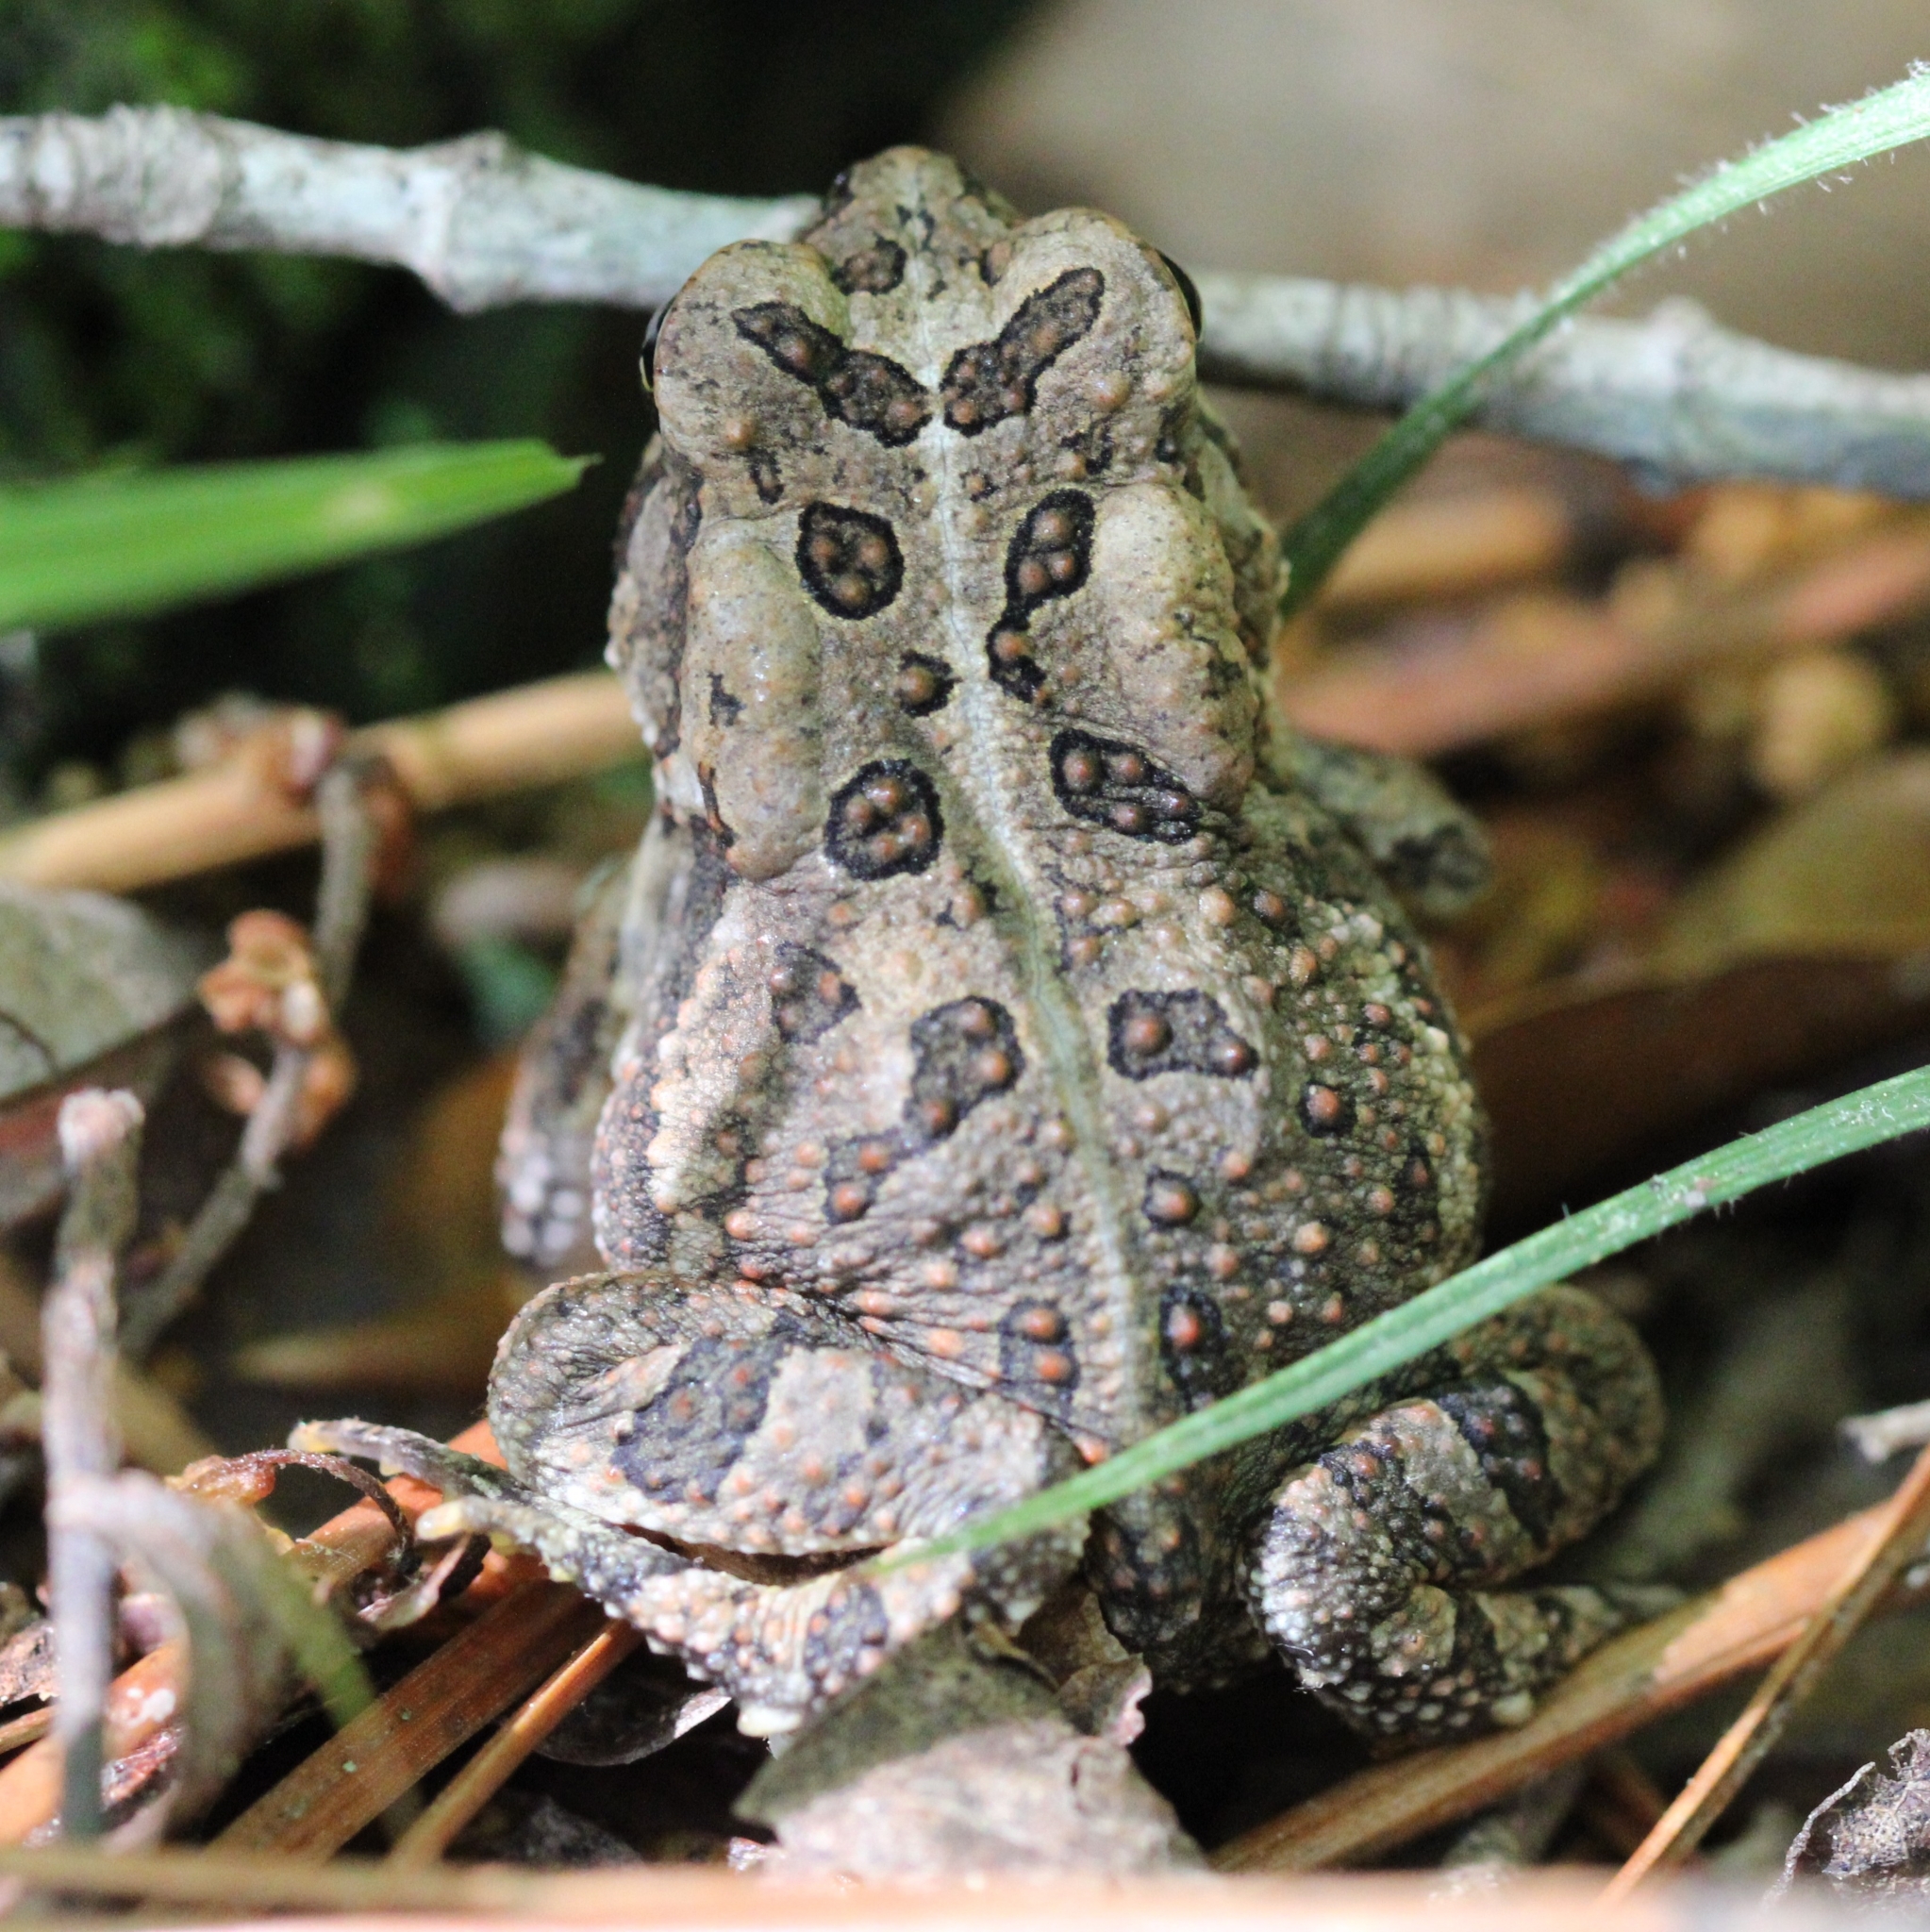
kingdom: Animalia
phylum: Chordata
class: Amphibia
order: Anura
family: Bufonidae
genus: Anaxyrus
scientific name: Anaxyrus fowleri
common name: Fowler's toad
